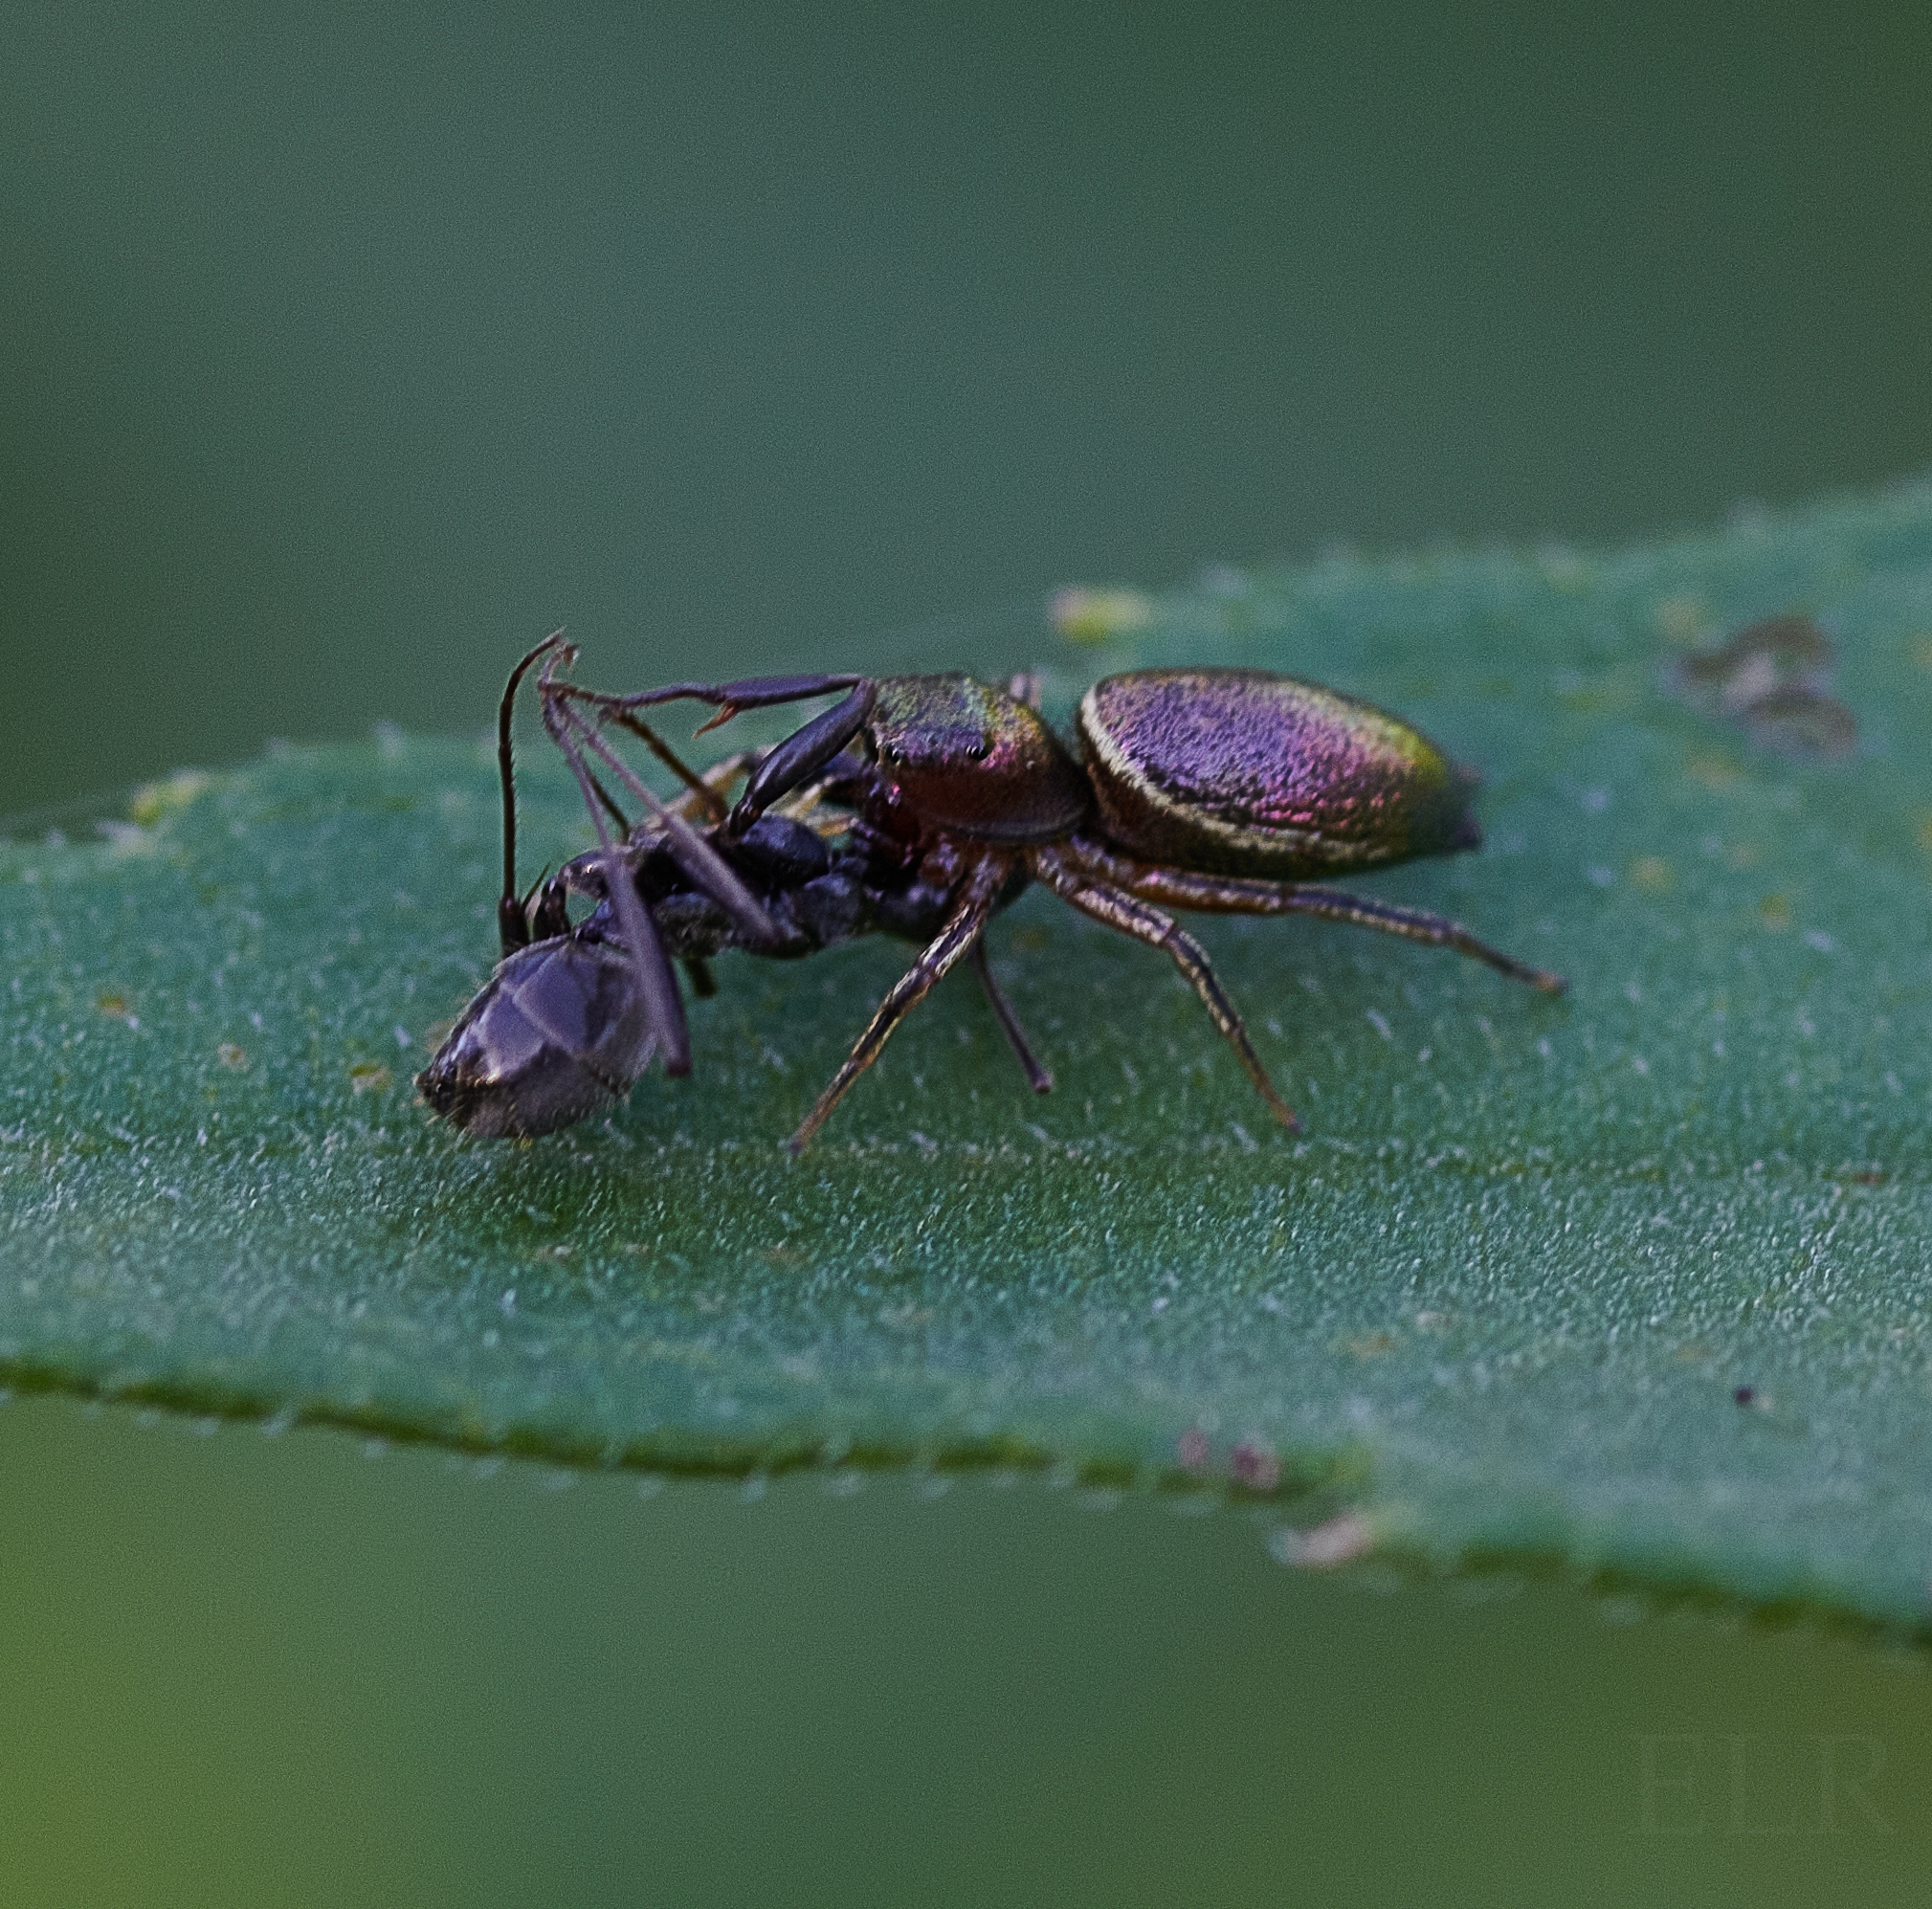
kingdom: Animalia
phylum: Arthropoda
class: Arachnida
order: Araneae
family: Salticidae
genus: Tutelina
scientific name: Tutelina elegans
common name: Thin-spined jumping spider
